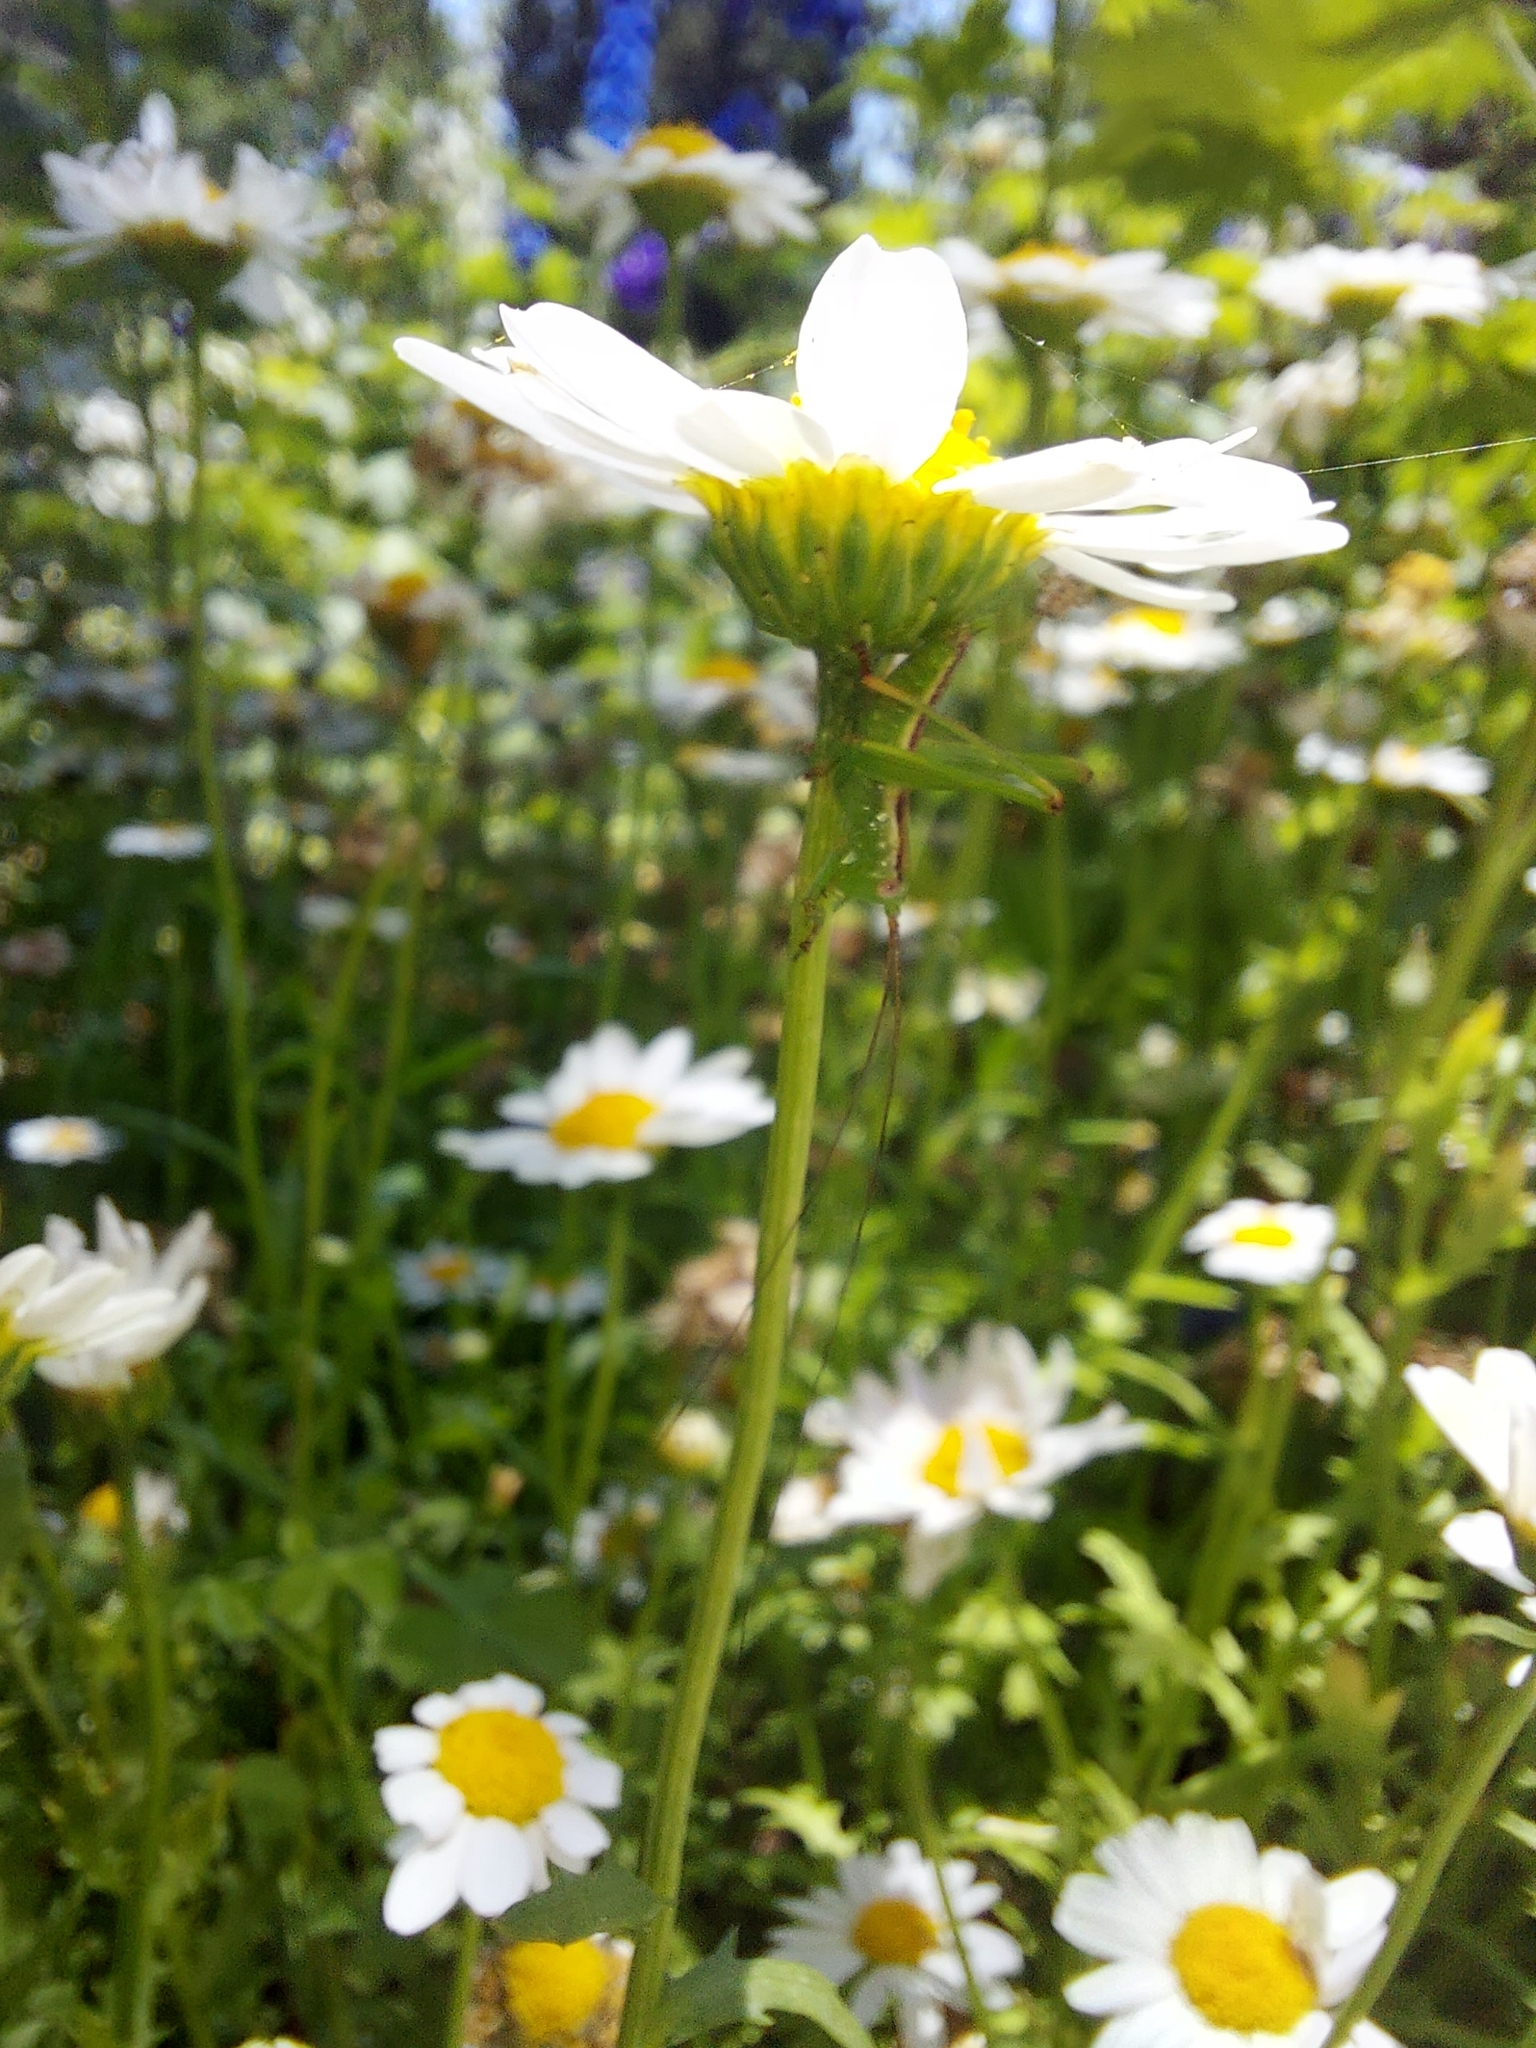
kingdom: Animalia
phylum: Arthropoda
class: Insecta
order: Orthoptera
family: Tettigoniidae
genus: Conocephalomima
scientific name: Conocephalomima barameda
